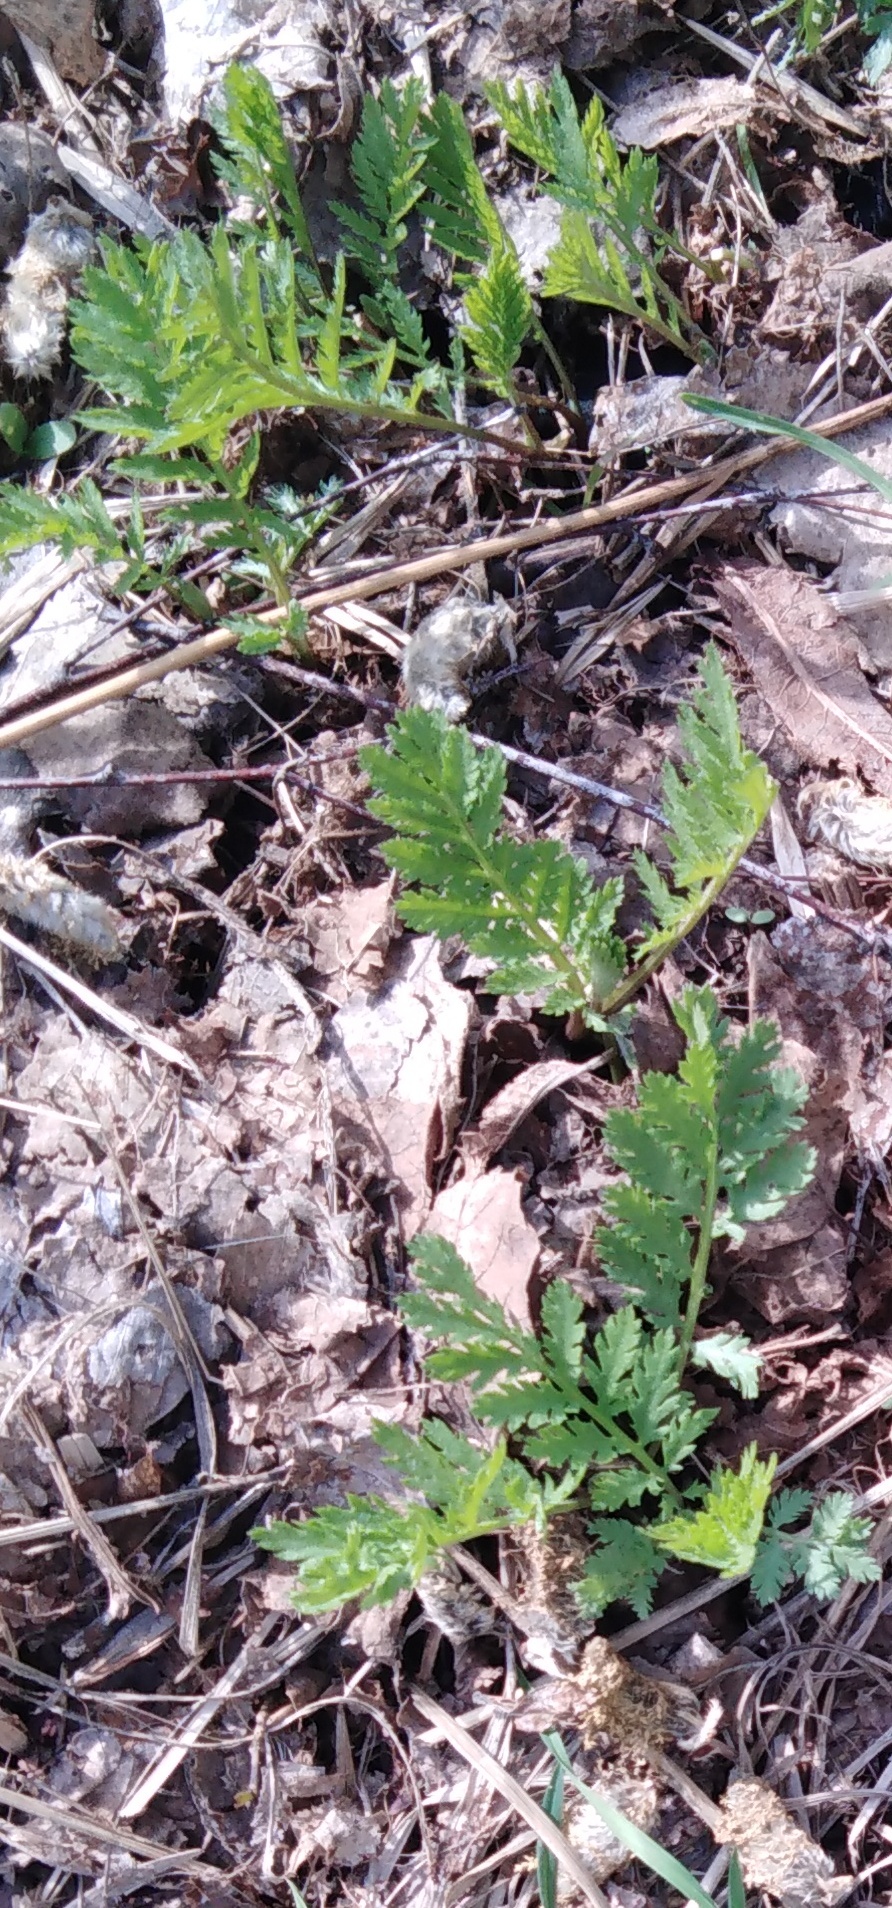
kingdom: Plantae
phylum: Tracheophyta
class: Magnoliopsida
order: Asterales
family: Asteraceae
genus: Tanacetum
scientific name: Tanacetum vulgare
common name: Common tansy
